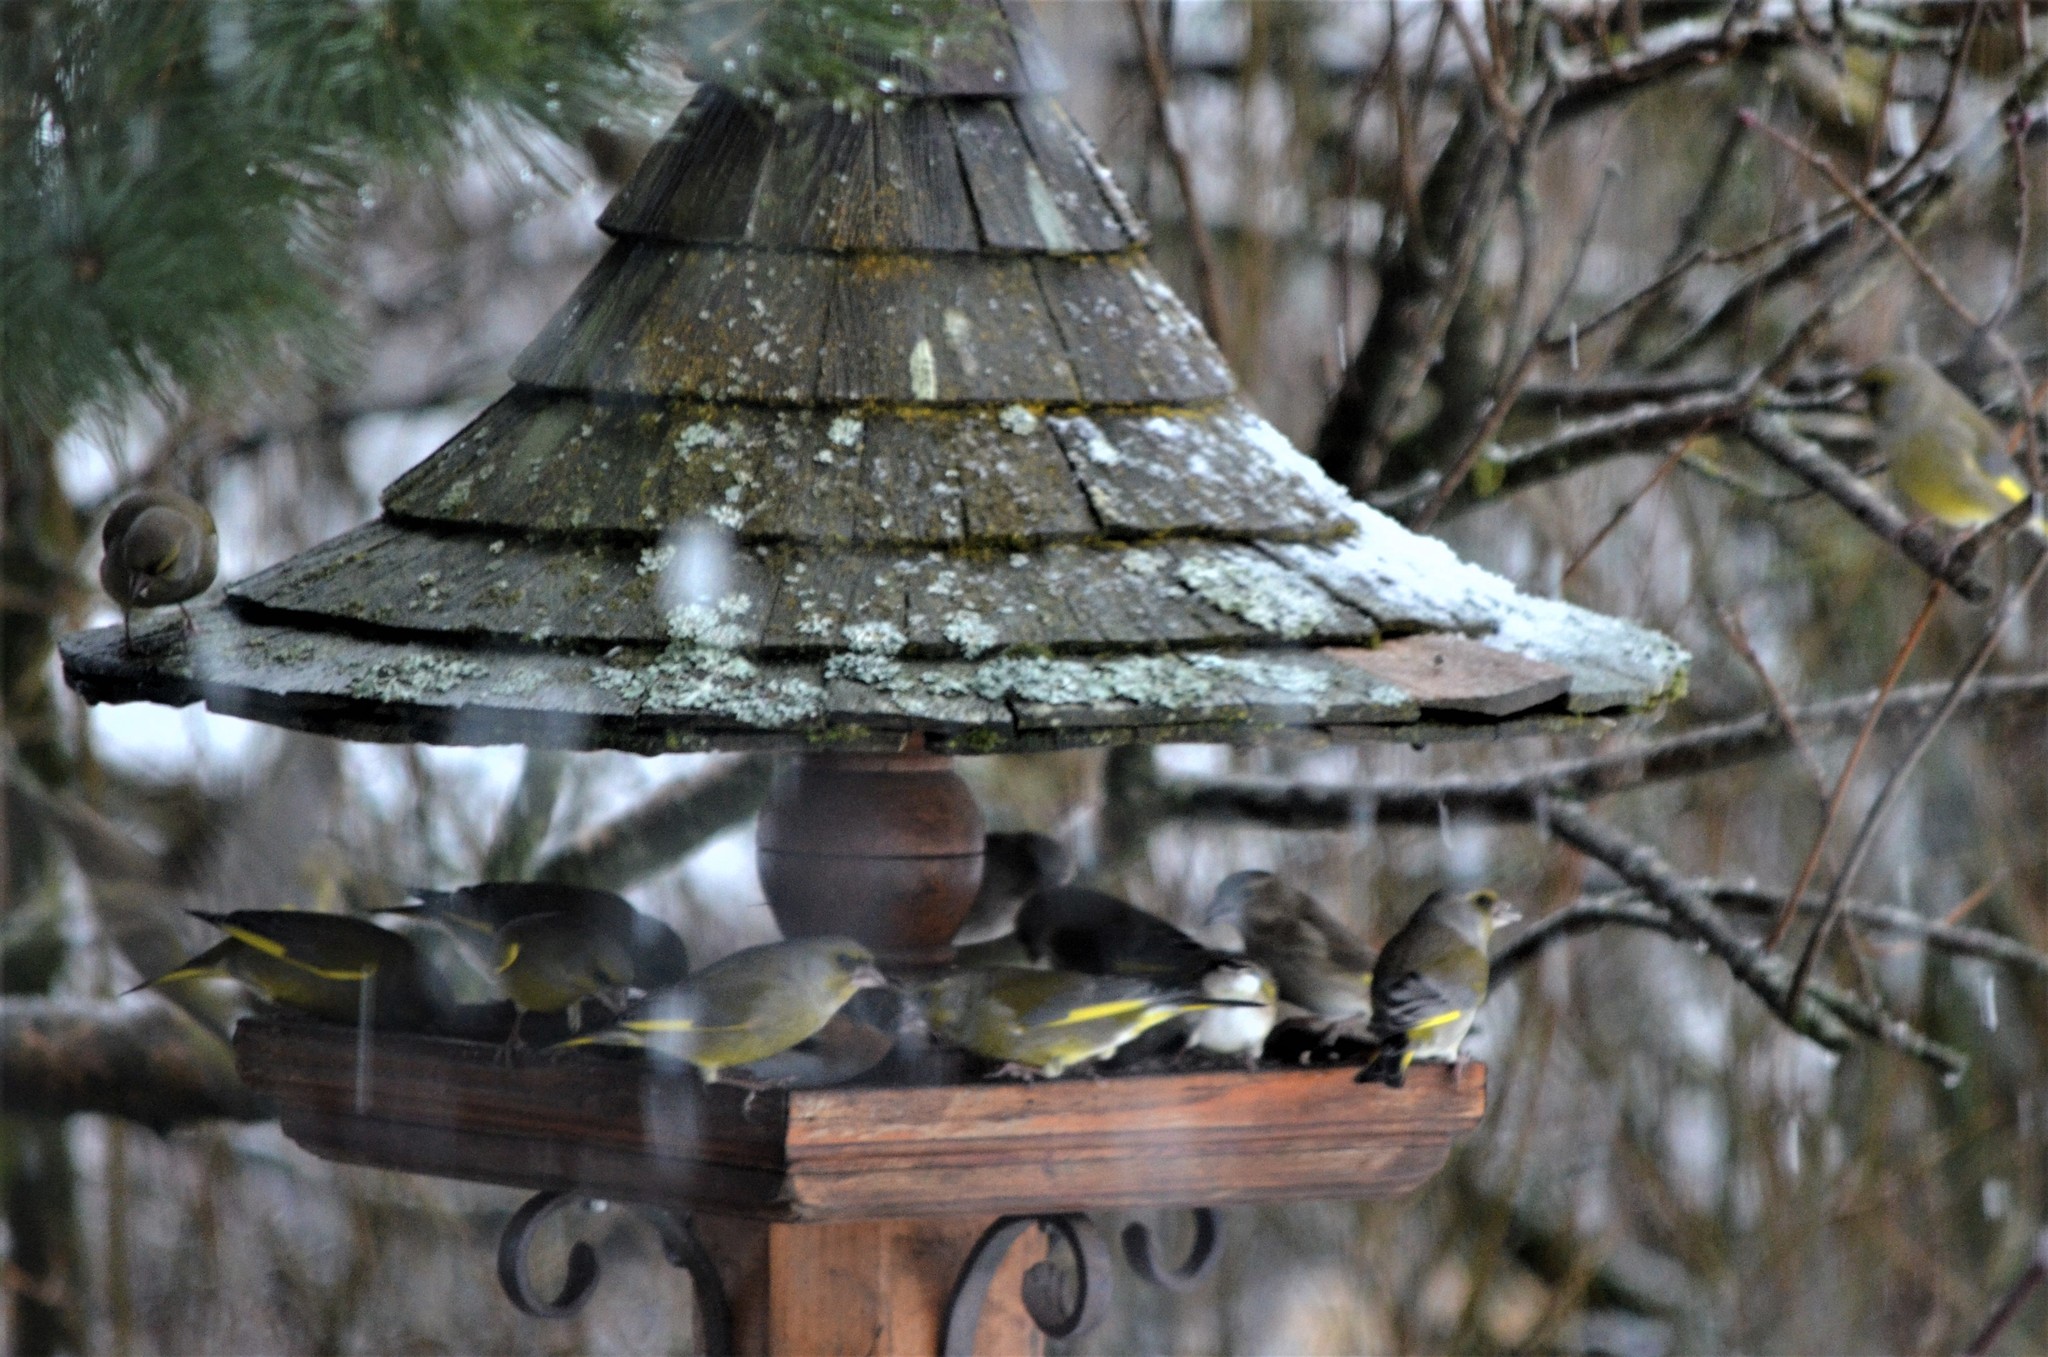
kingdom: Plantae
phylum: Tracheophyta
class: Liliopsida
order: Poales
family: Poaceae
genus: Chloris
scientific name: Chloris chloris
